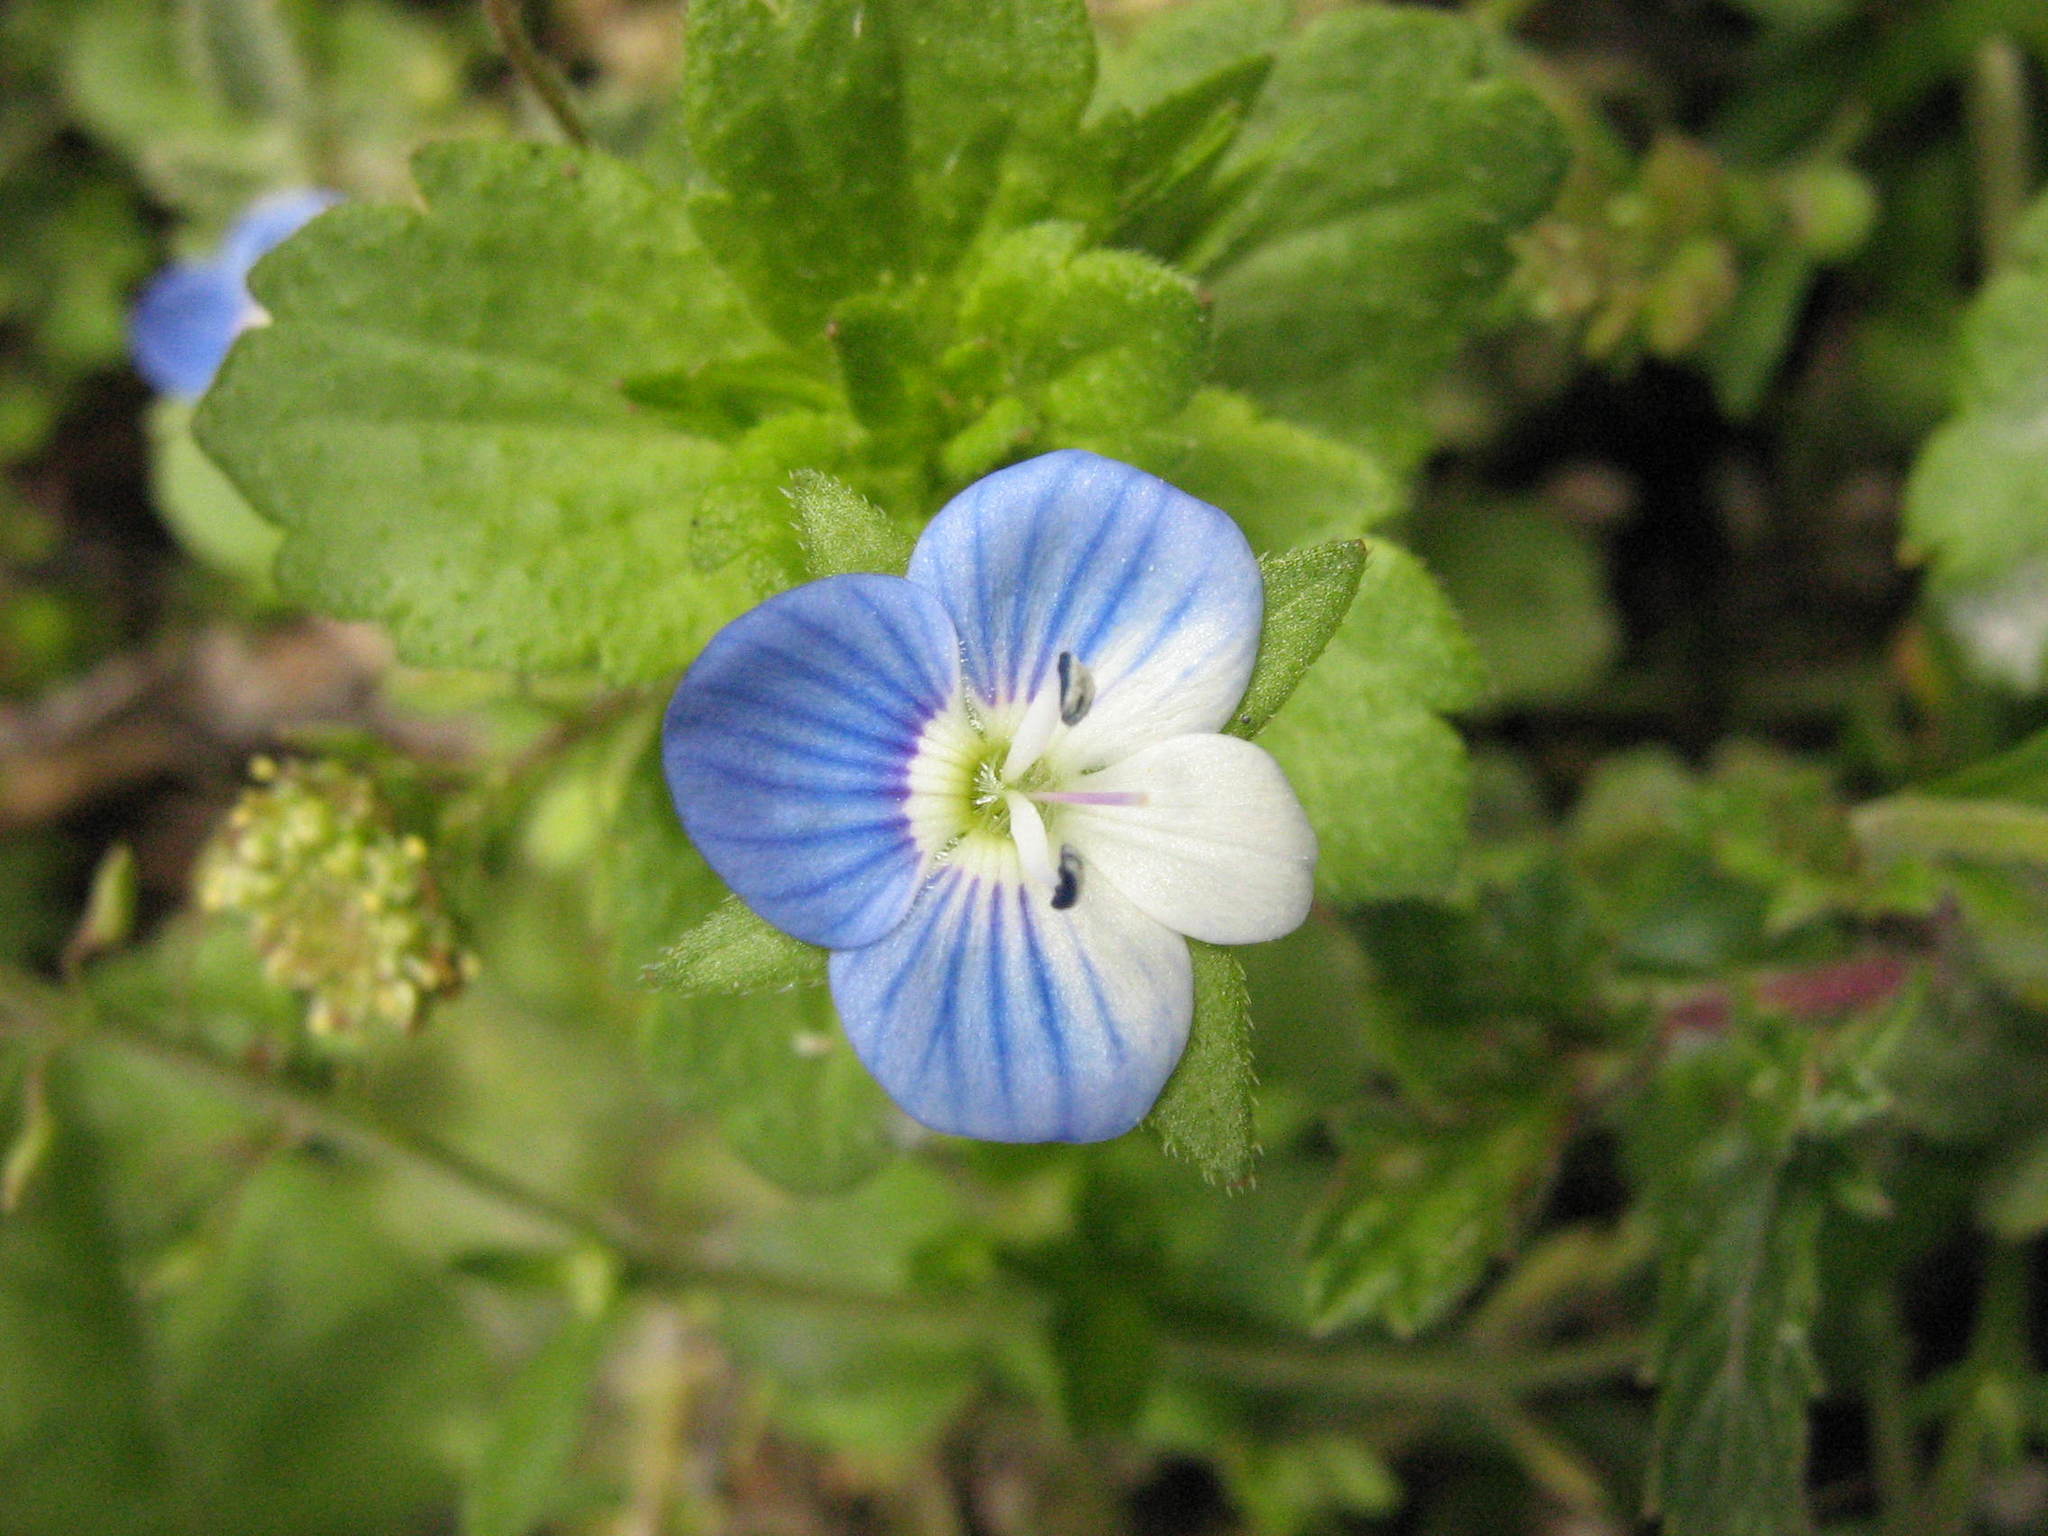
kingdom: Plantae
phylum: Tracheophyta
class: Magnoliopsida
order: Lamiales
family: Plantaginaceae
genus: Veronica
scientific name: Veronica persica
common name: Common field-speedwell
